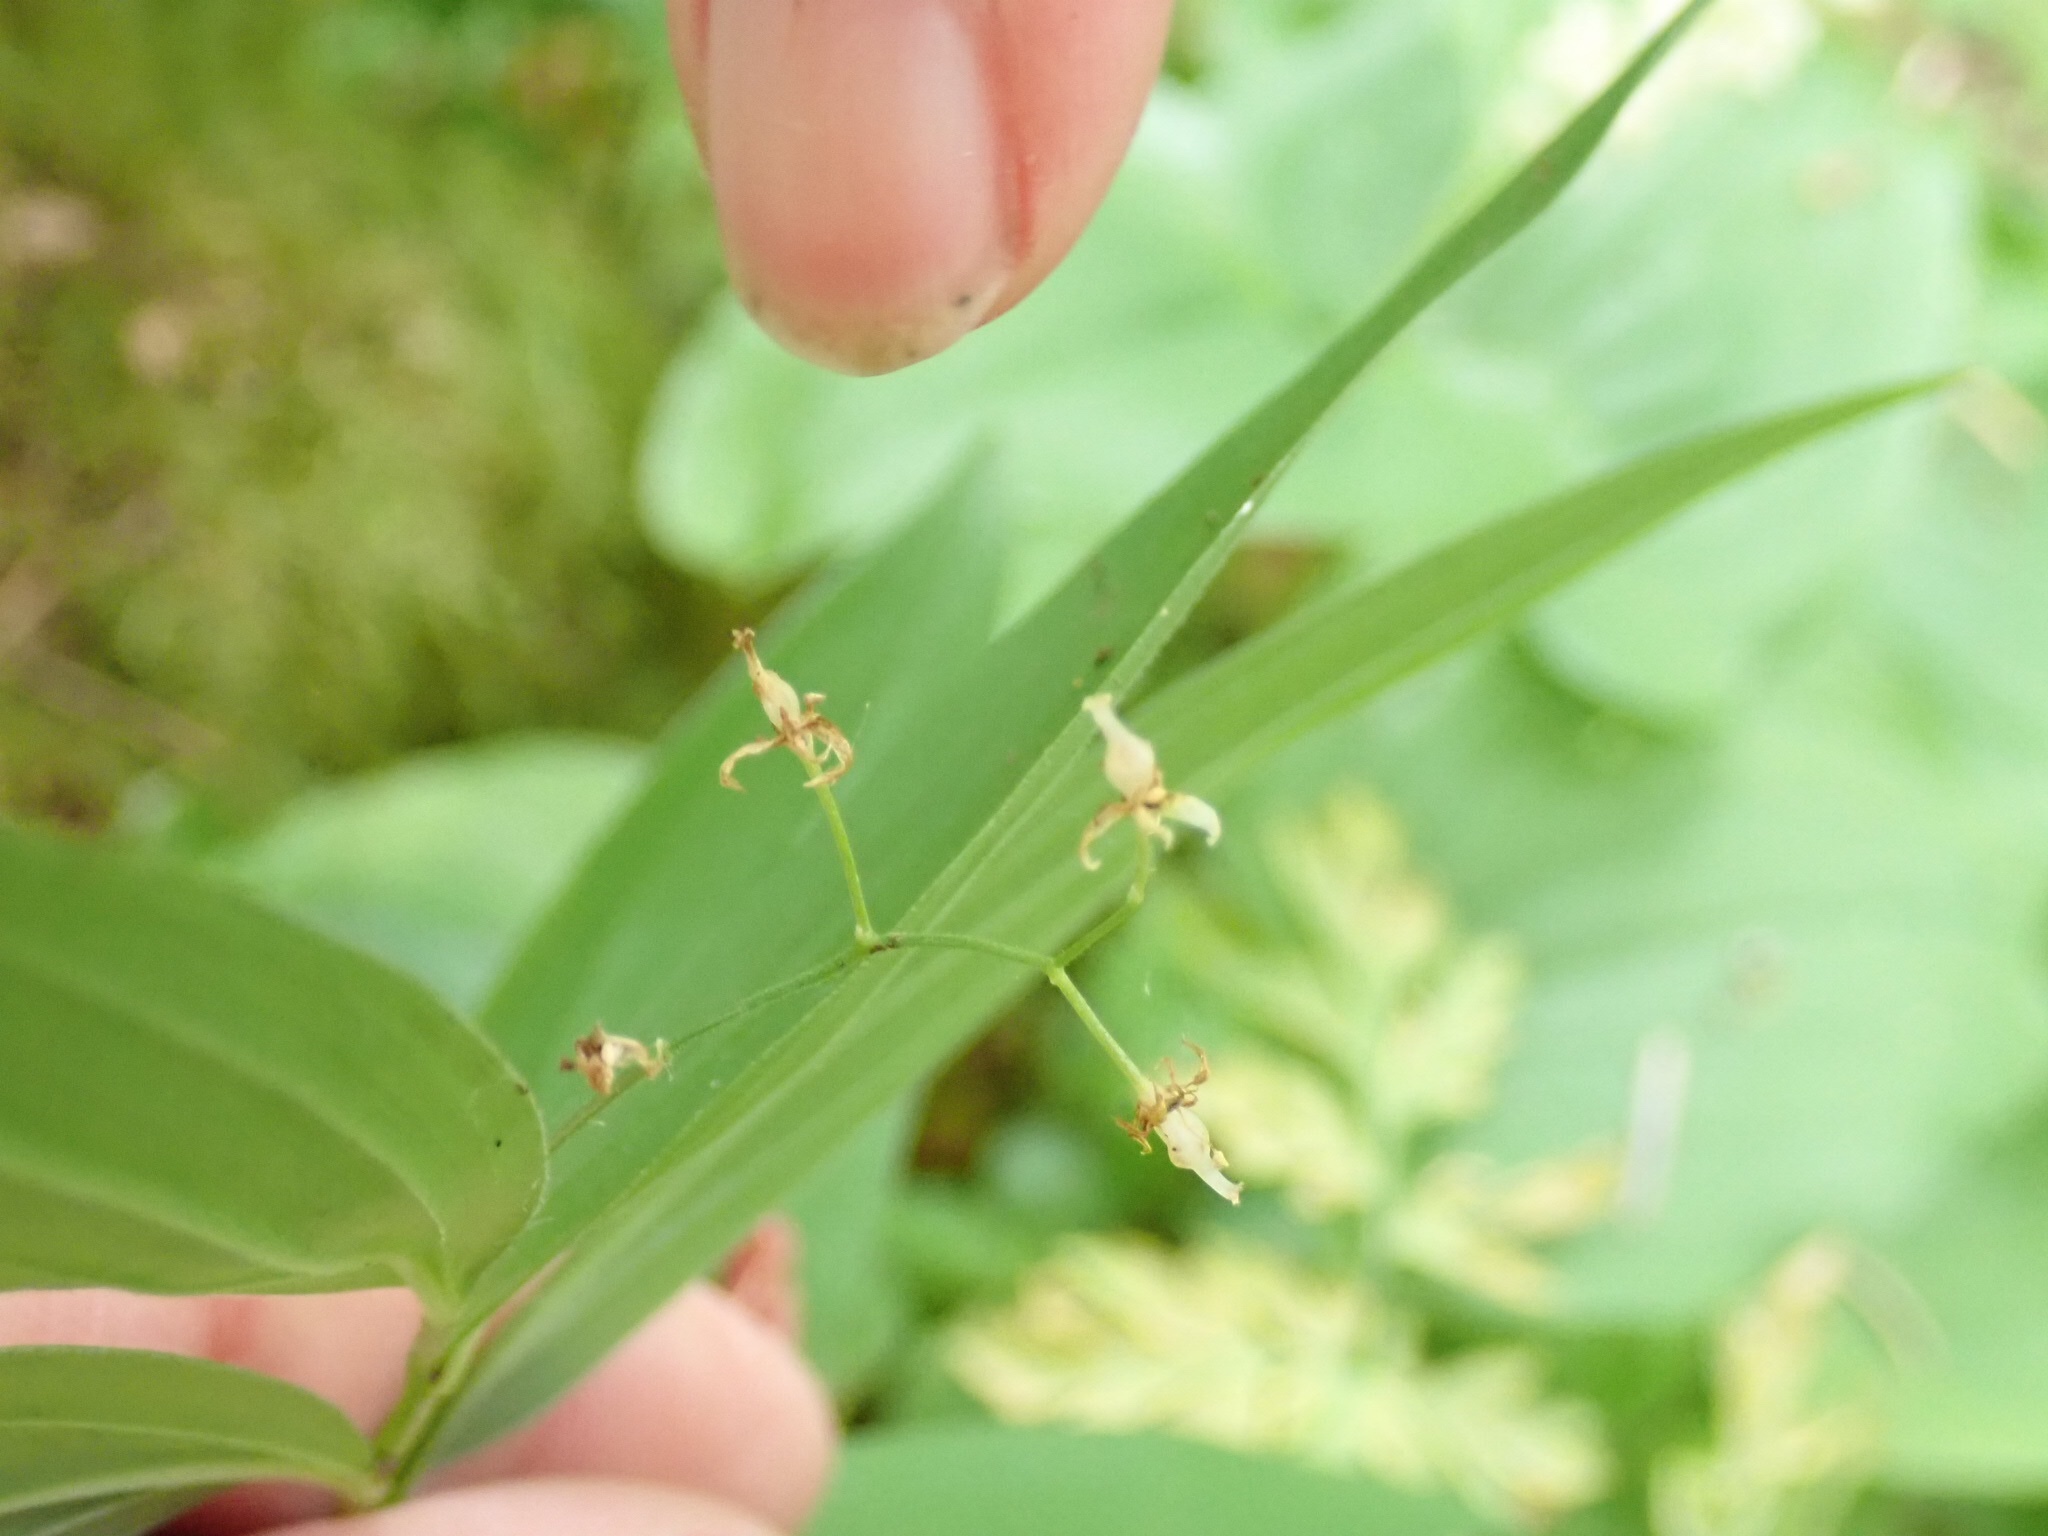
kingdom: Plantae
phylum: Tracheophyta
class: Liliopsida
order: Asparagales
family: Asparagaceae
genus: Maianthemum
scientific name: Maianthemum stellatum
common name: Little false solomon's seal
